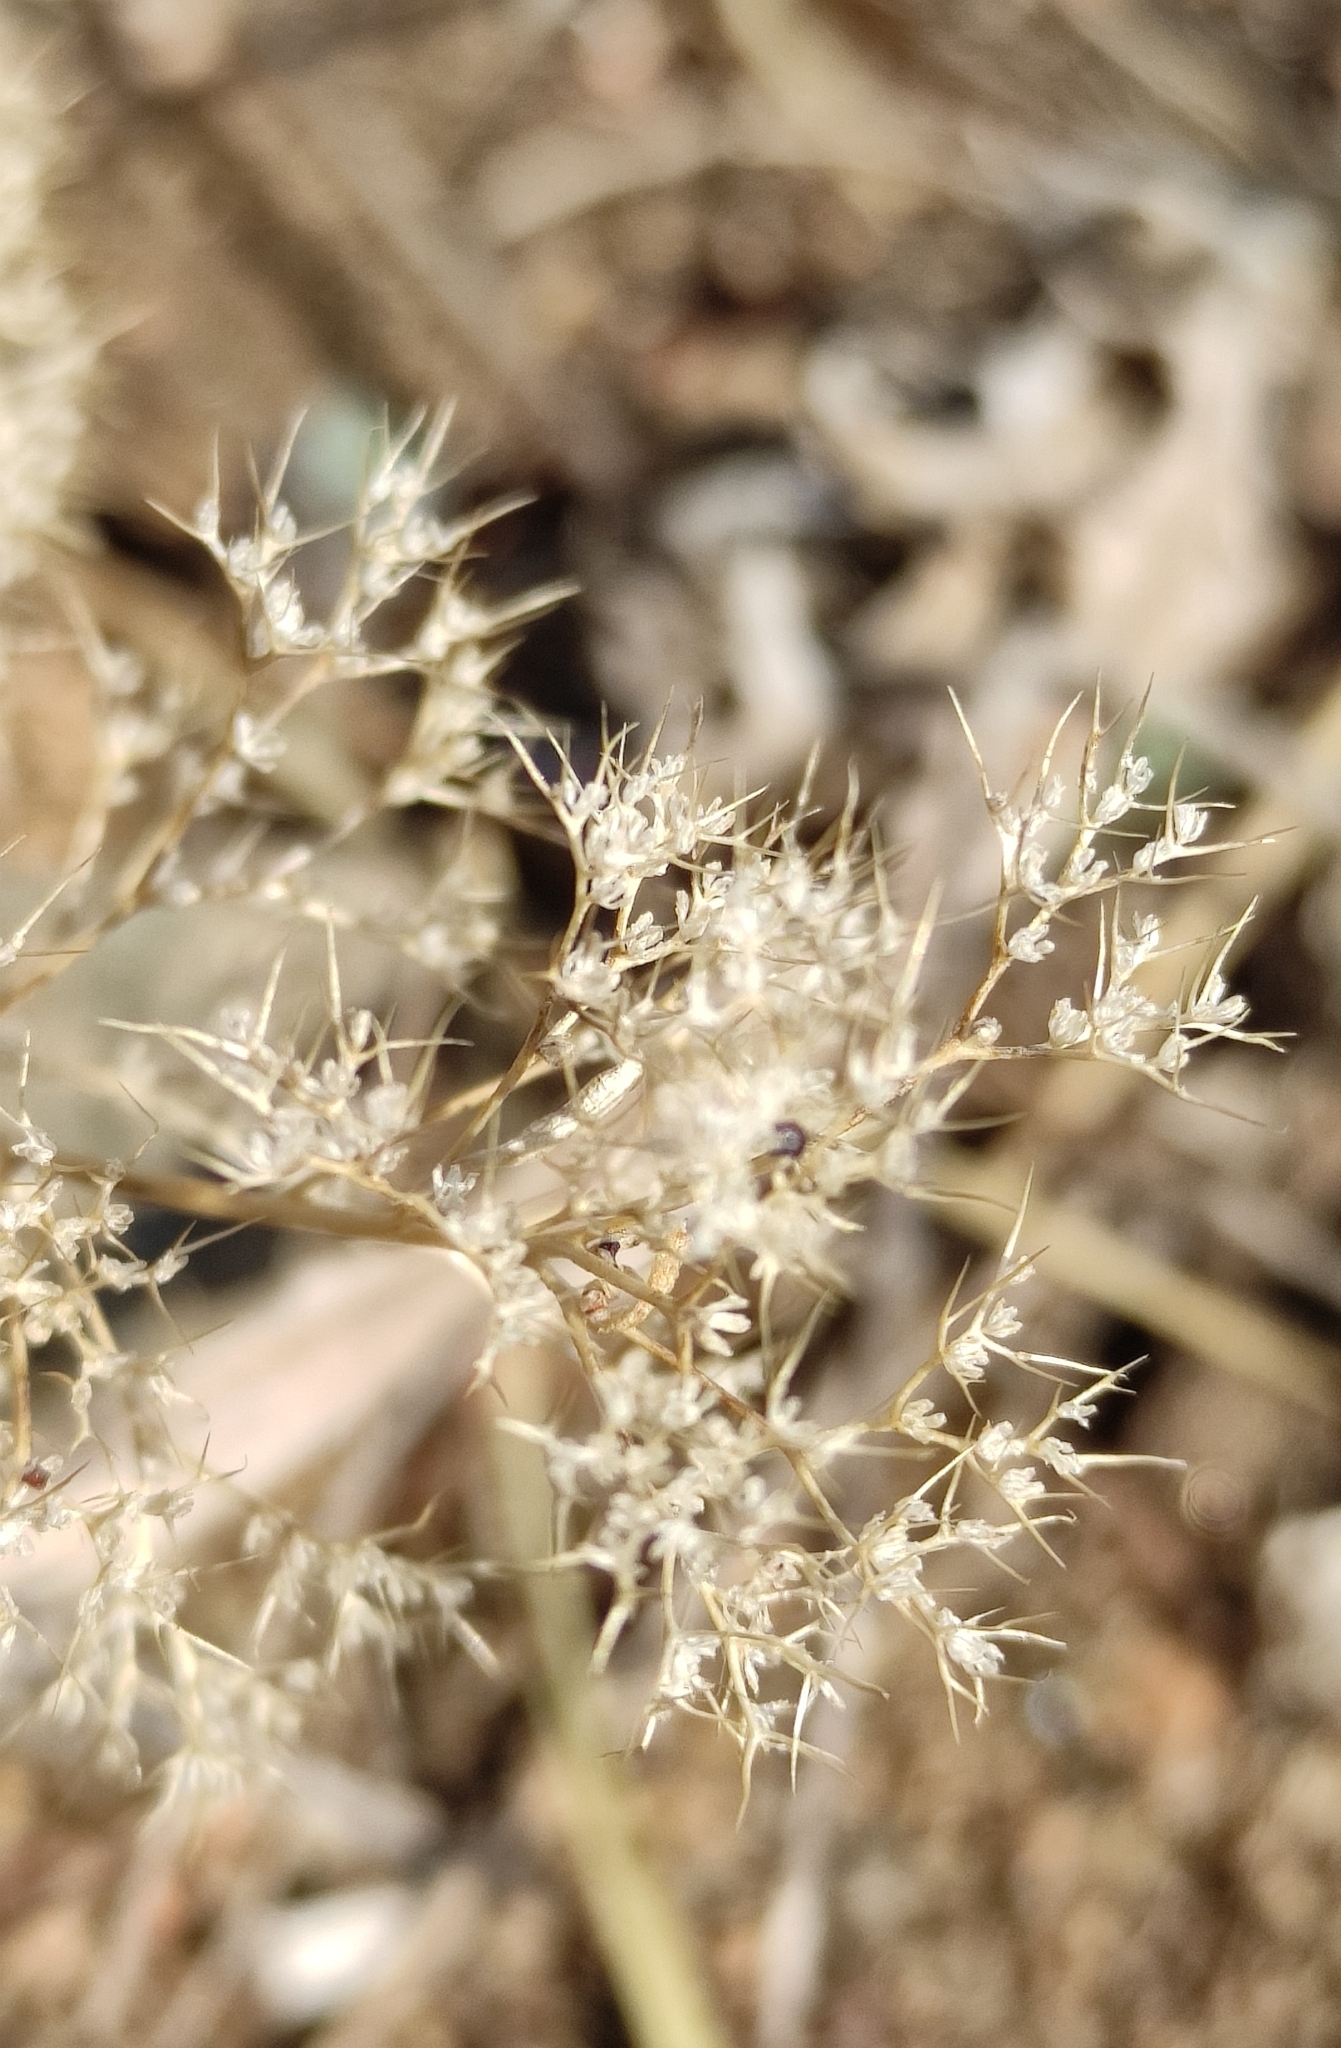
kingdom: Plantae
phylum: Tracheophyta
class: Magnoliopsida
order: Caryophyllales
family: Amaranthaceae
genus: Teloxys
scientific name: Teloxys aristata
